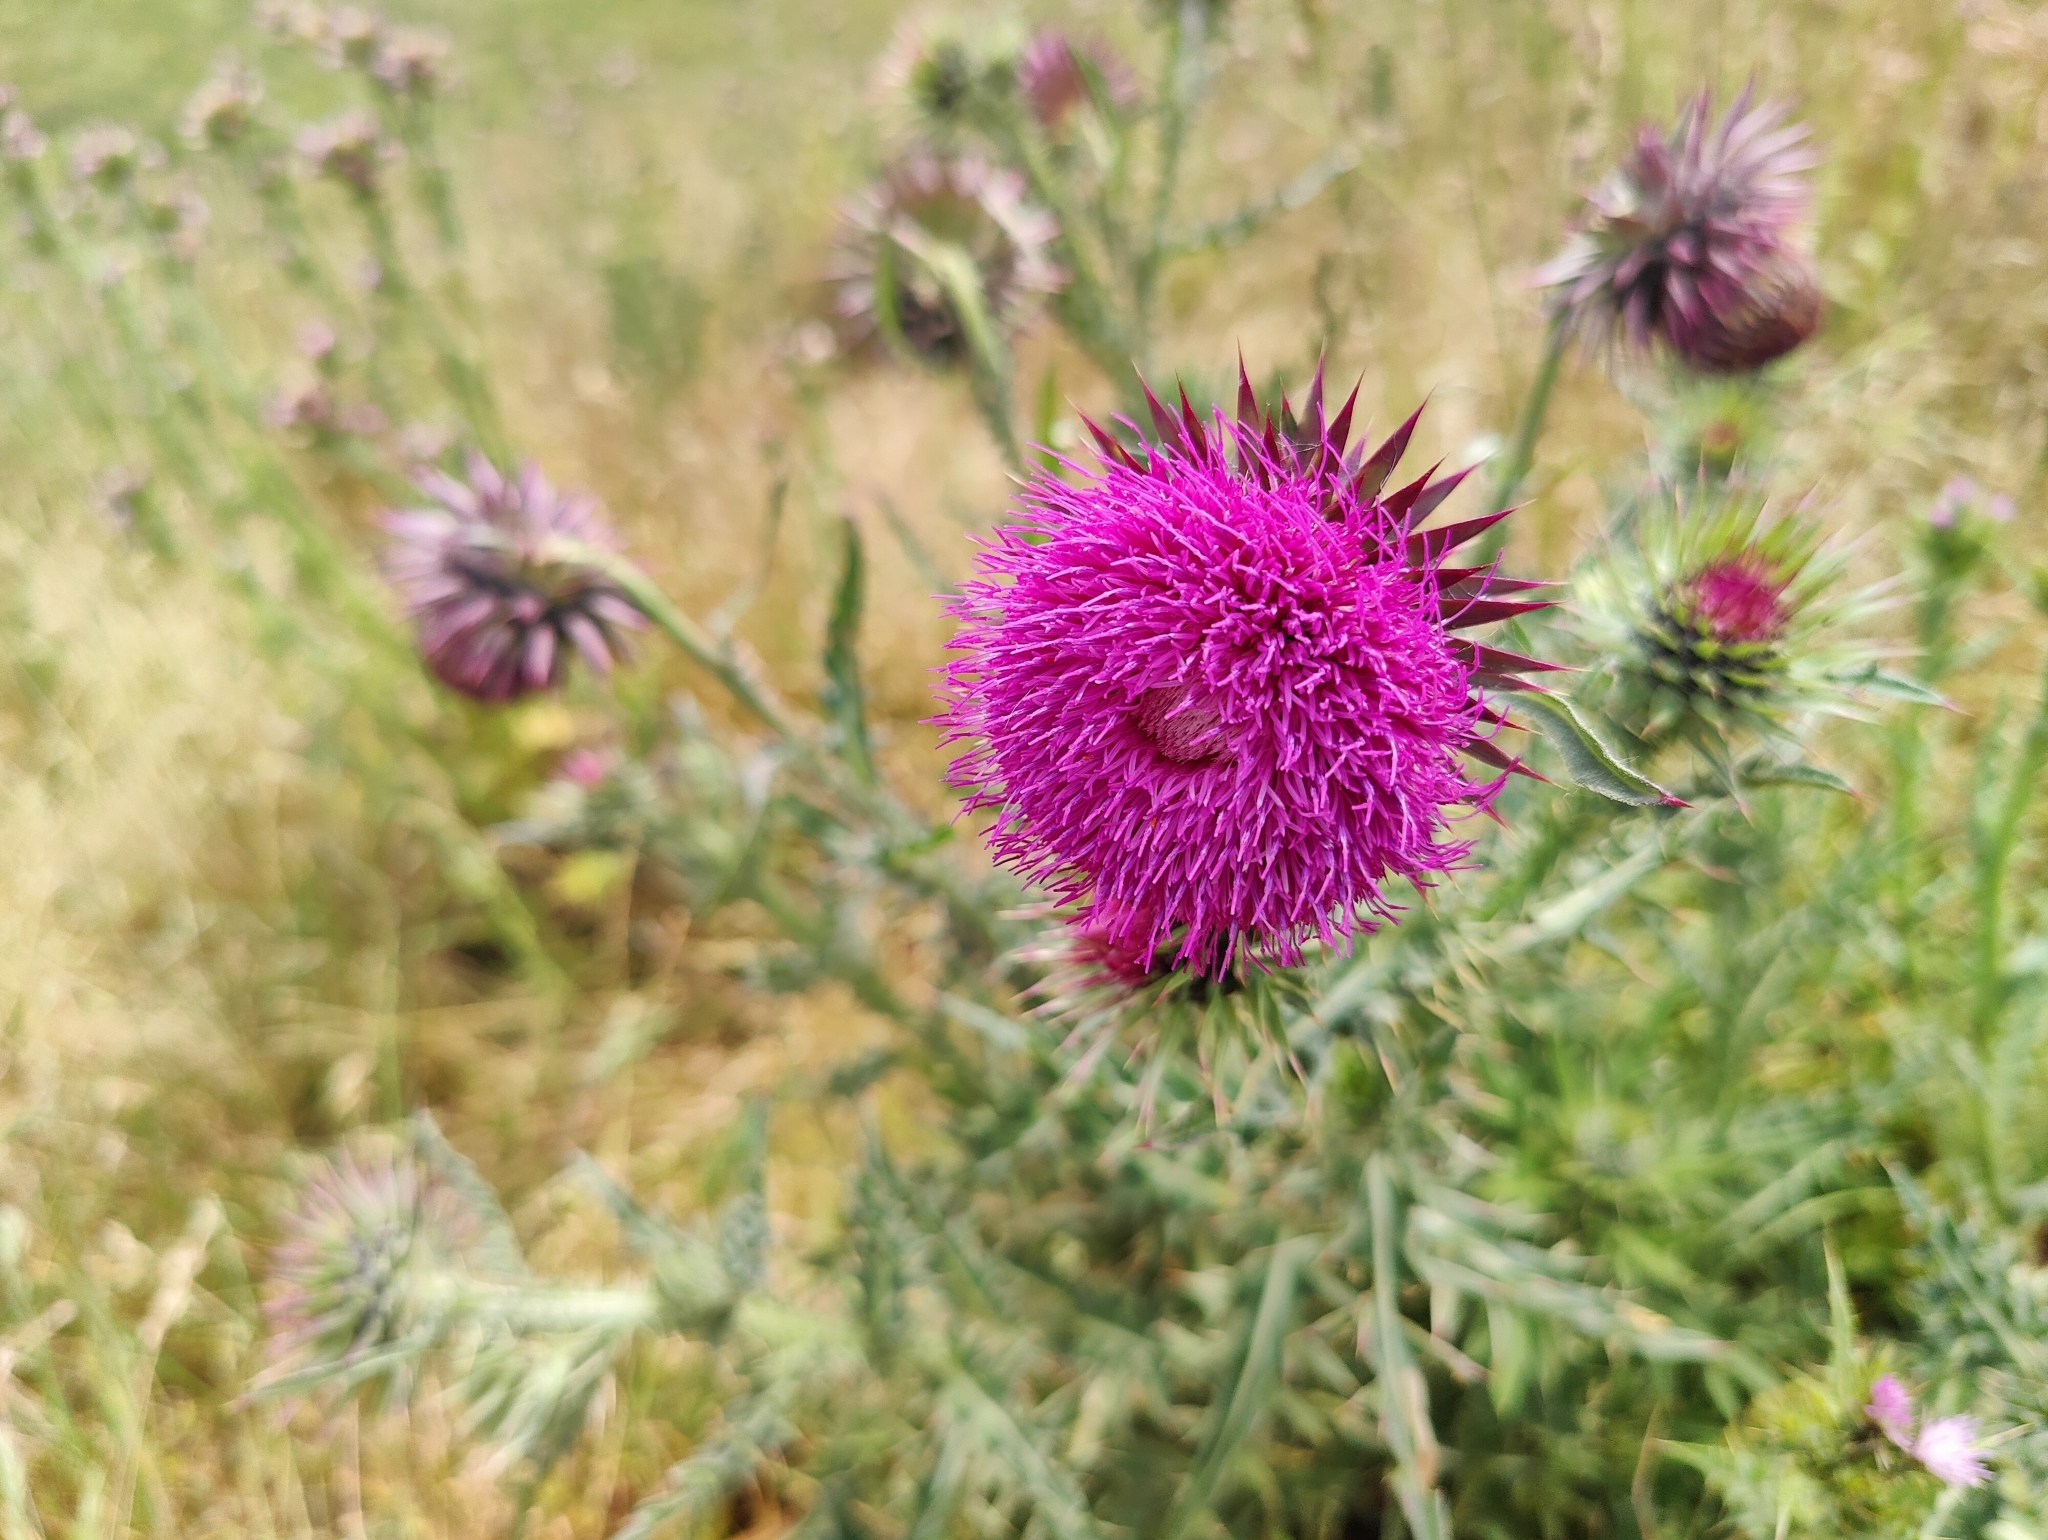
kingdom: Plantae
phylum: Tracheophyta
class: Magnoliopsida
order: Asterales
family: Asteraceae
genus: Carduus
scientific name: Carduus nutans
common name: Musk thistle
